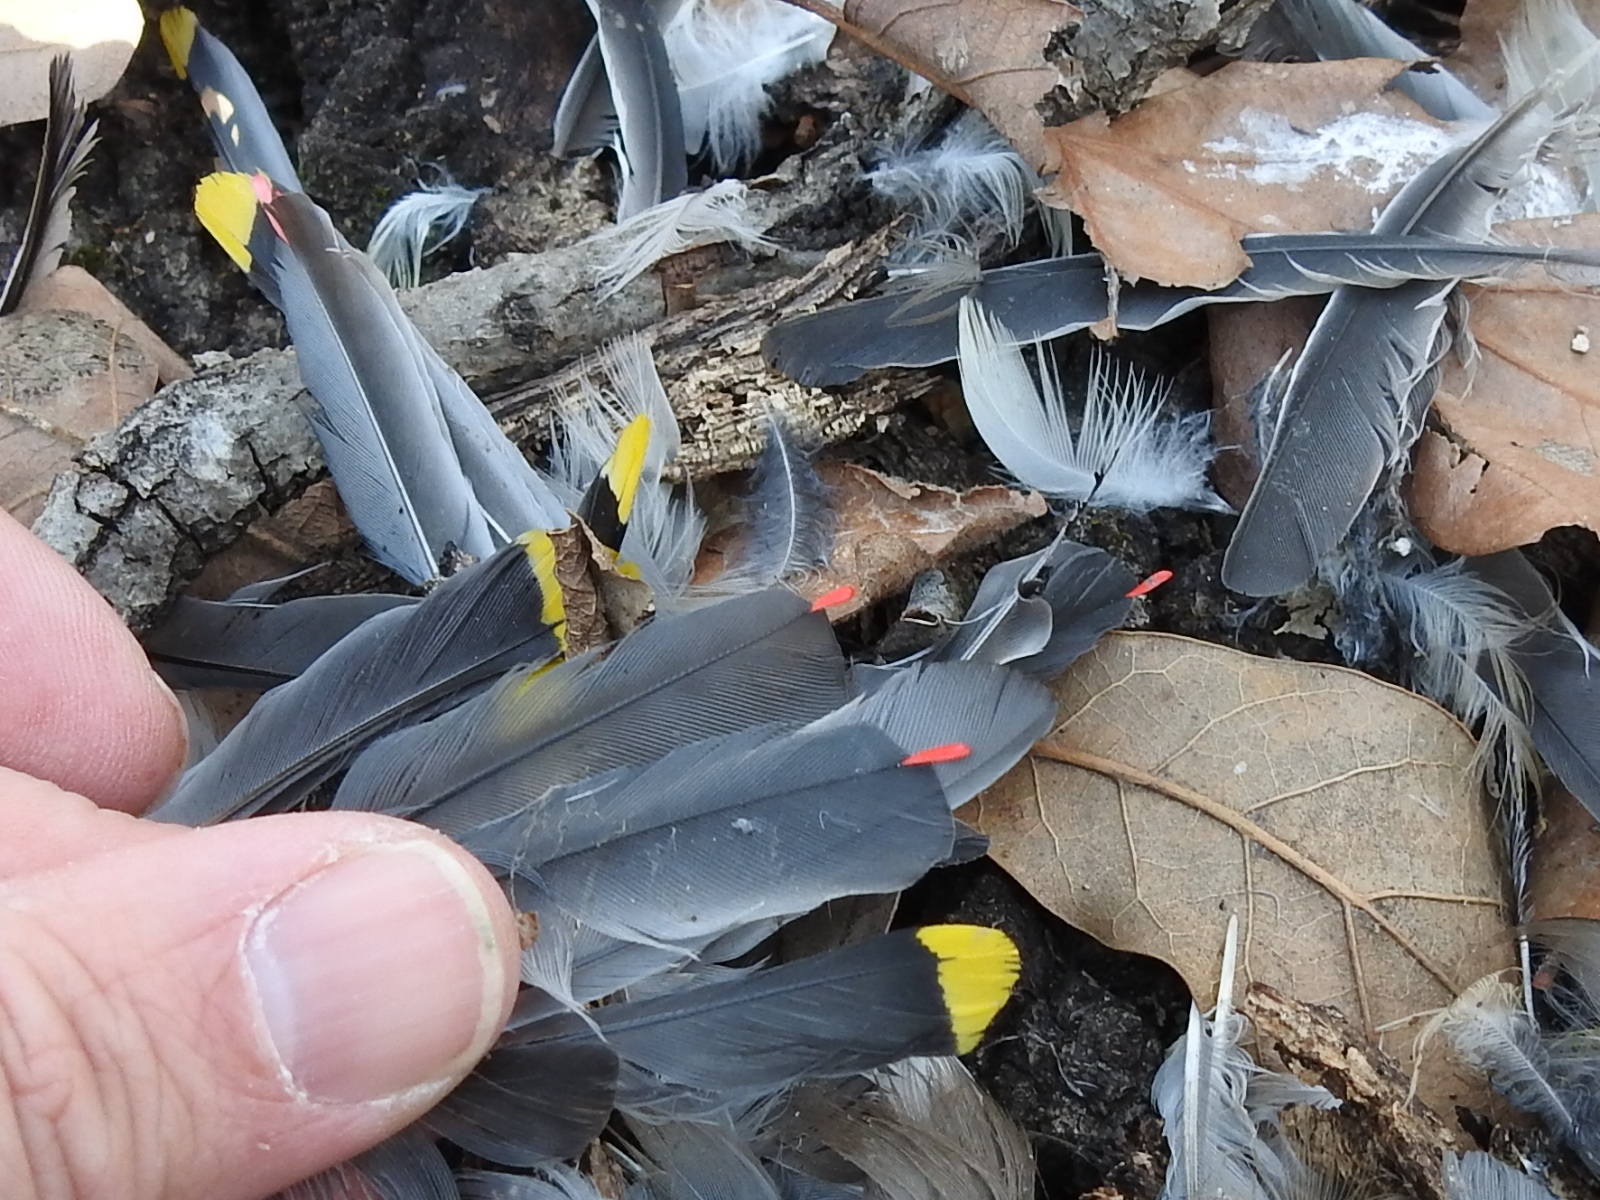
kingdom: Animalia
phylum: Chordata
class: Aves
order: Passeriformes
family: Bombycillidae
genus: Bombycilla
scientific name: Bombycilla cedrorum
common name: Cedar waxwing
